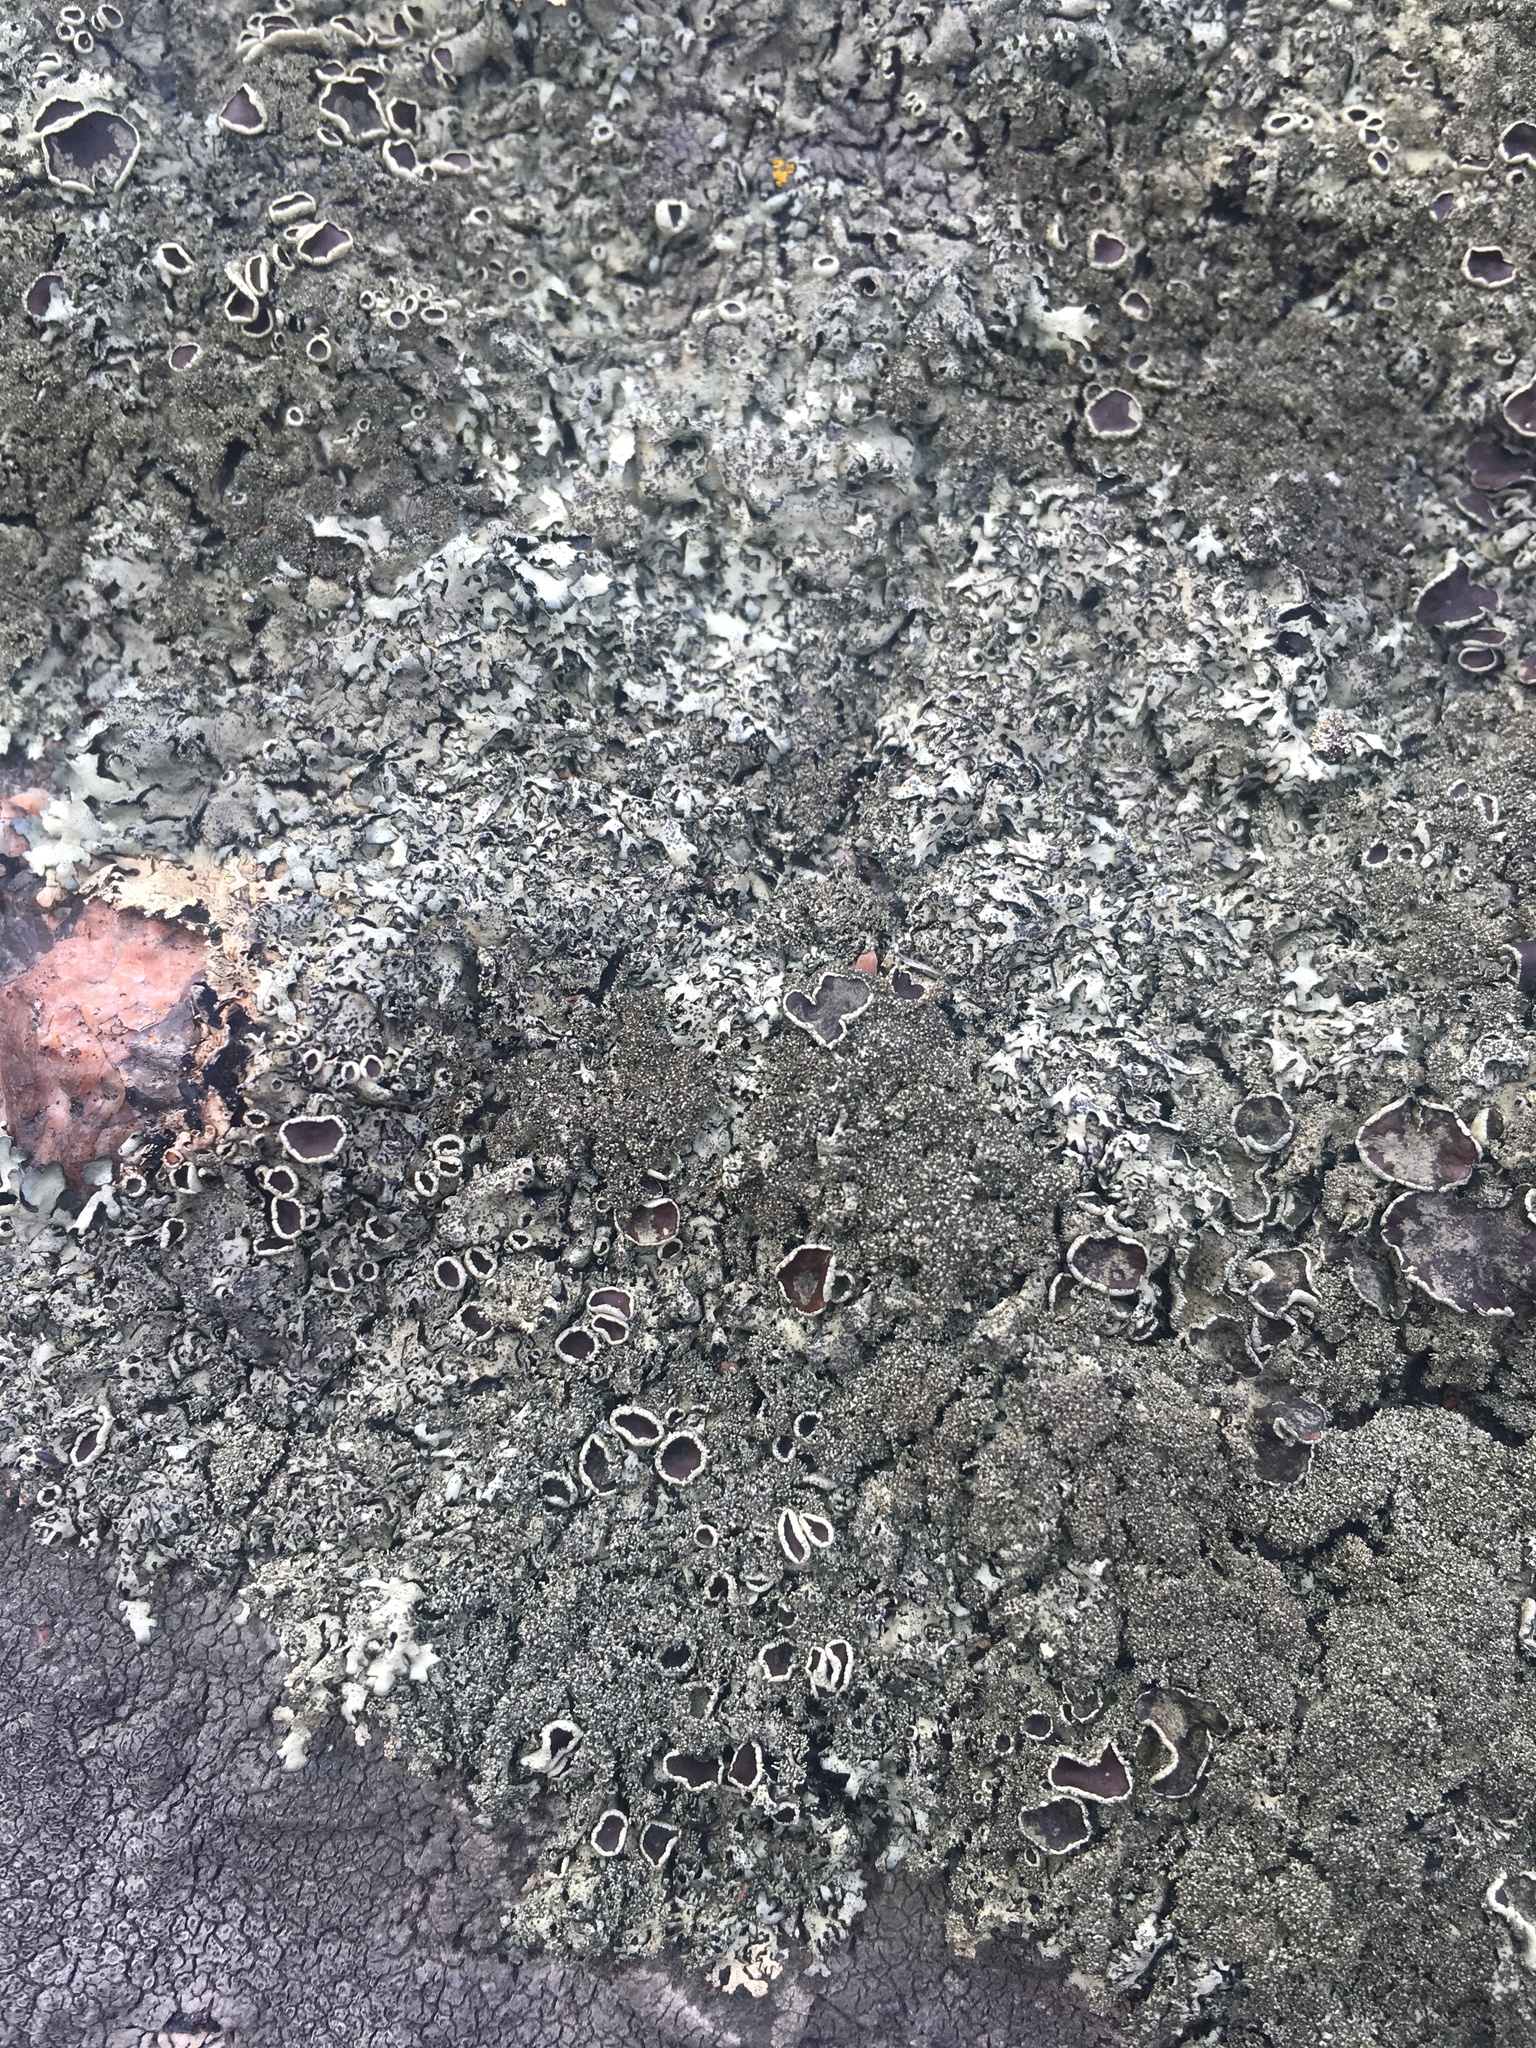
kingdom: Fungi
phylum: Ascomycota
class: Lecanoromycetes
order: Lecanorales
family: Parmeliaceae
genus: Xanthoparmelia
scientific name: Xanthoparmelia conspersa
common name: Peppered rock shield
